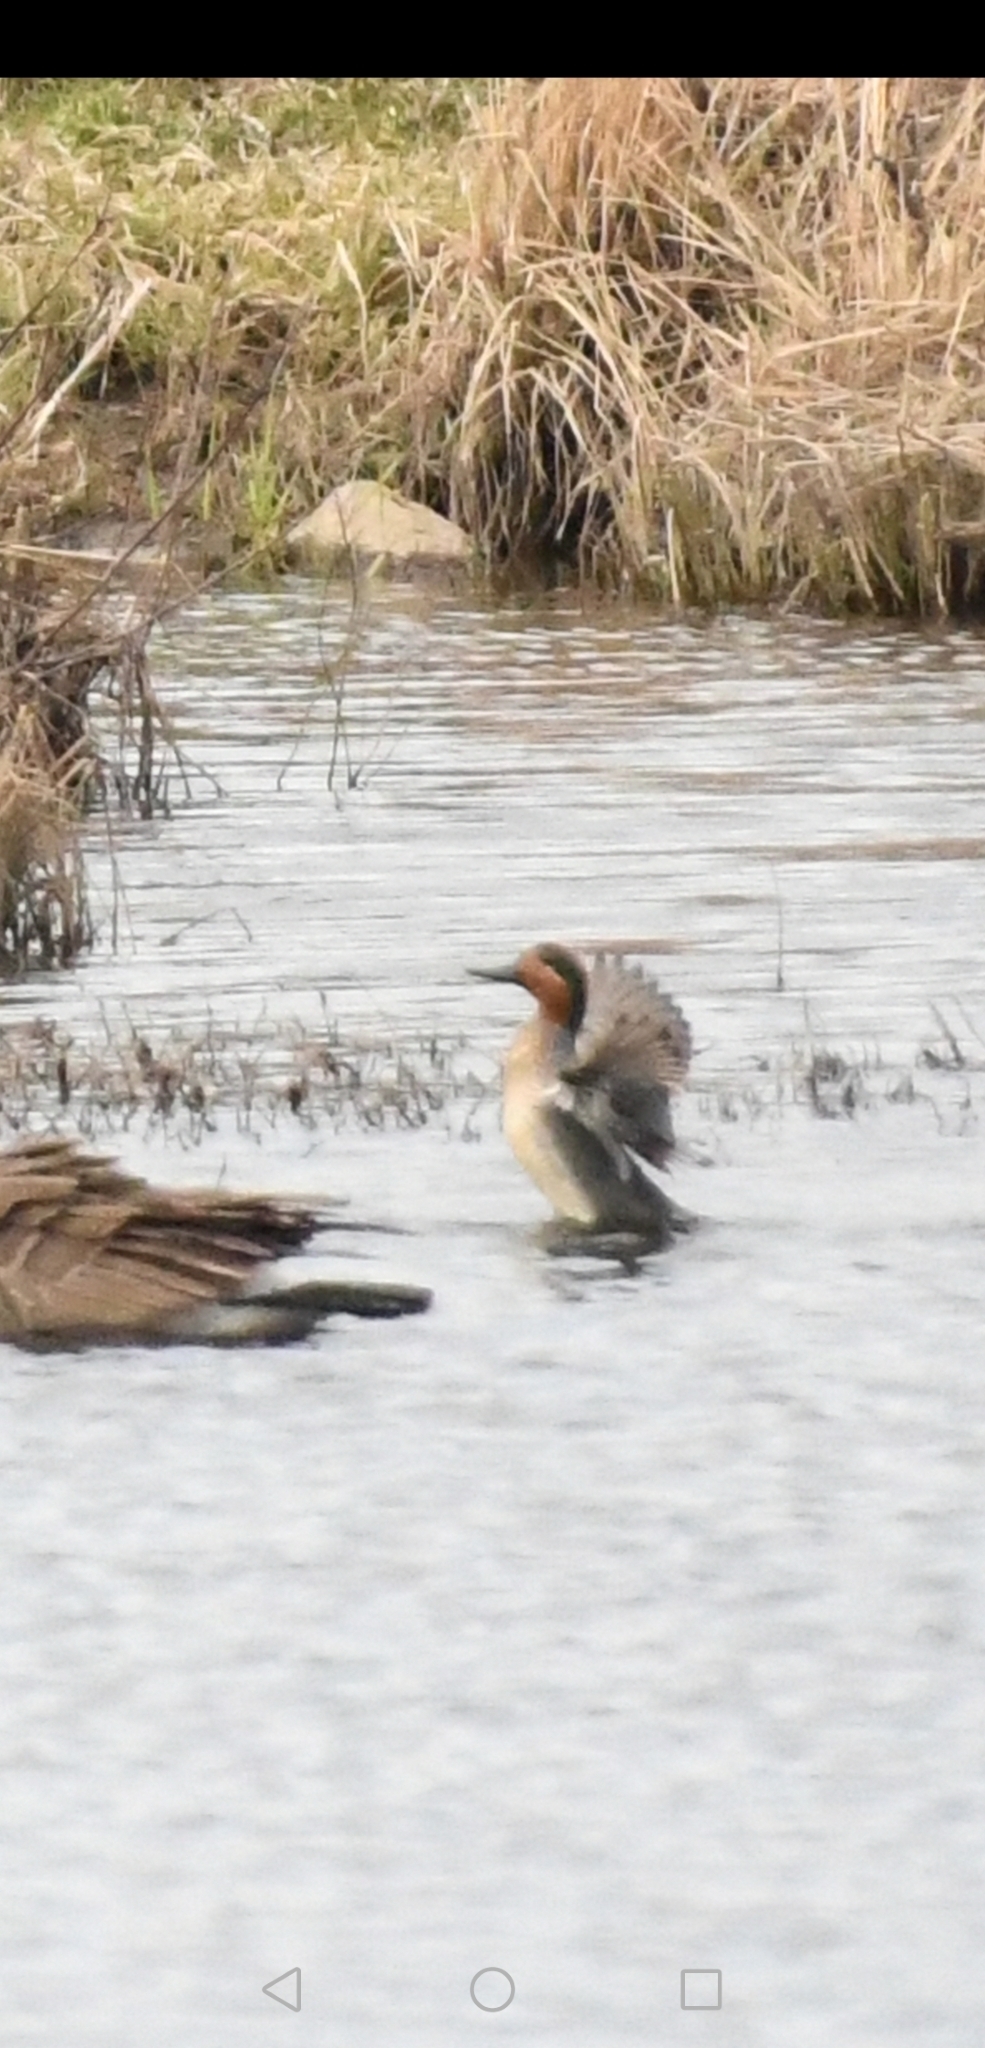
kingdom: Animalia
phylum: Chordata
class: Aves
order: Anseriformes
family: Anatidae
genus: Anas
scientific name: Anas crecca
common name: Eurasian teal
